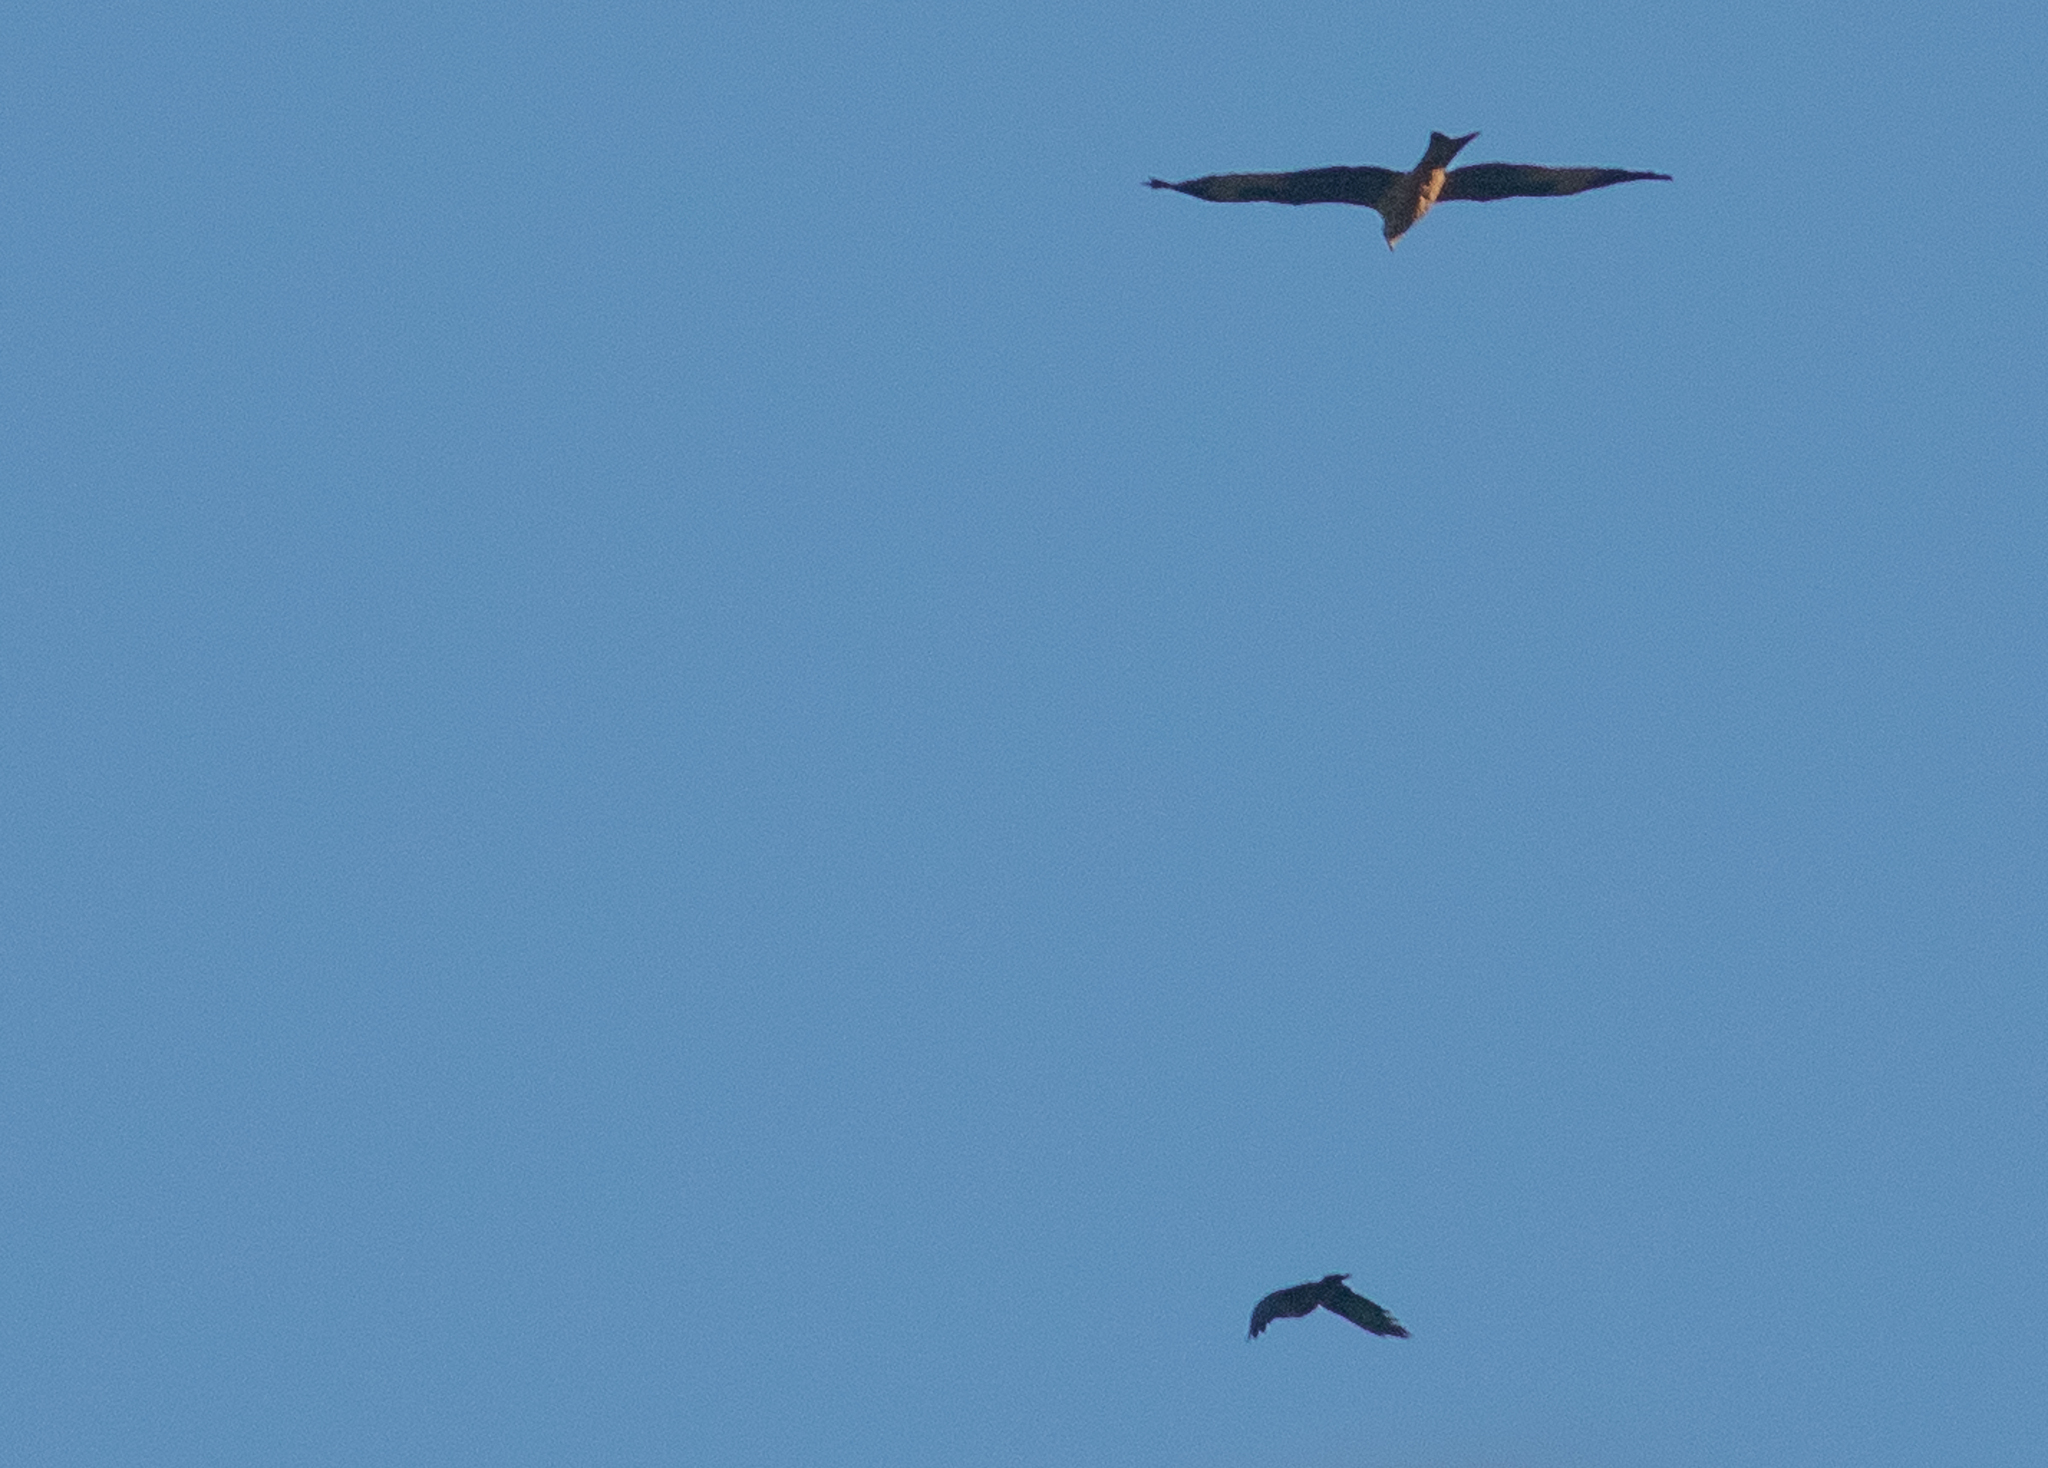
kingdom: Animalia
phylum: Chordata
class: Aves
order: Accipitriformes
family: Accipitridae
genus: Milvus
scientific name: Milvus milvus
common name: Red kite
